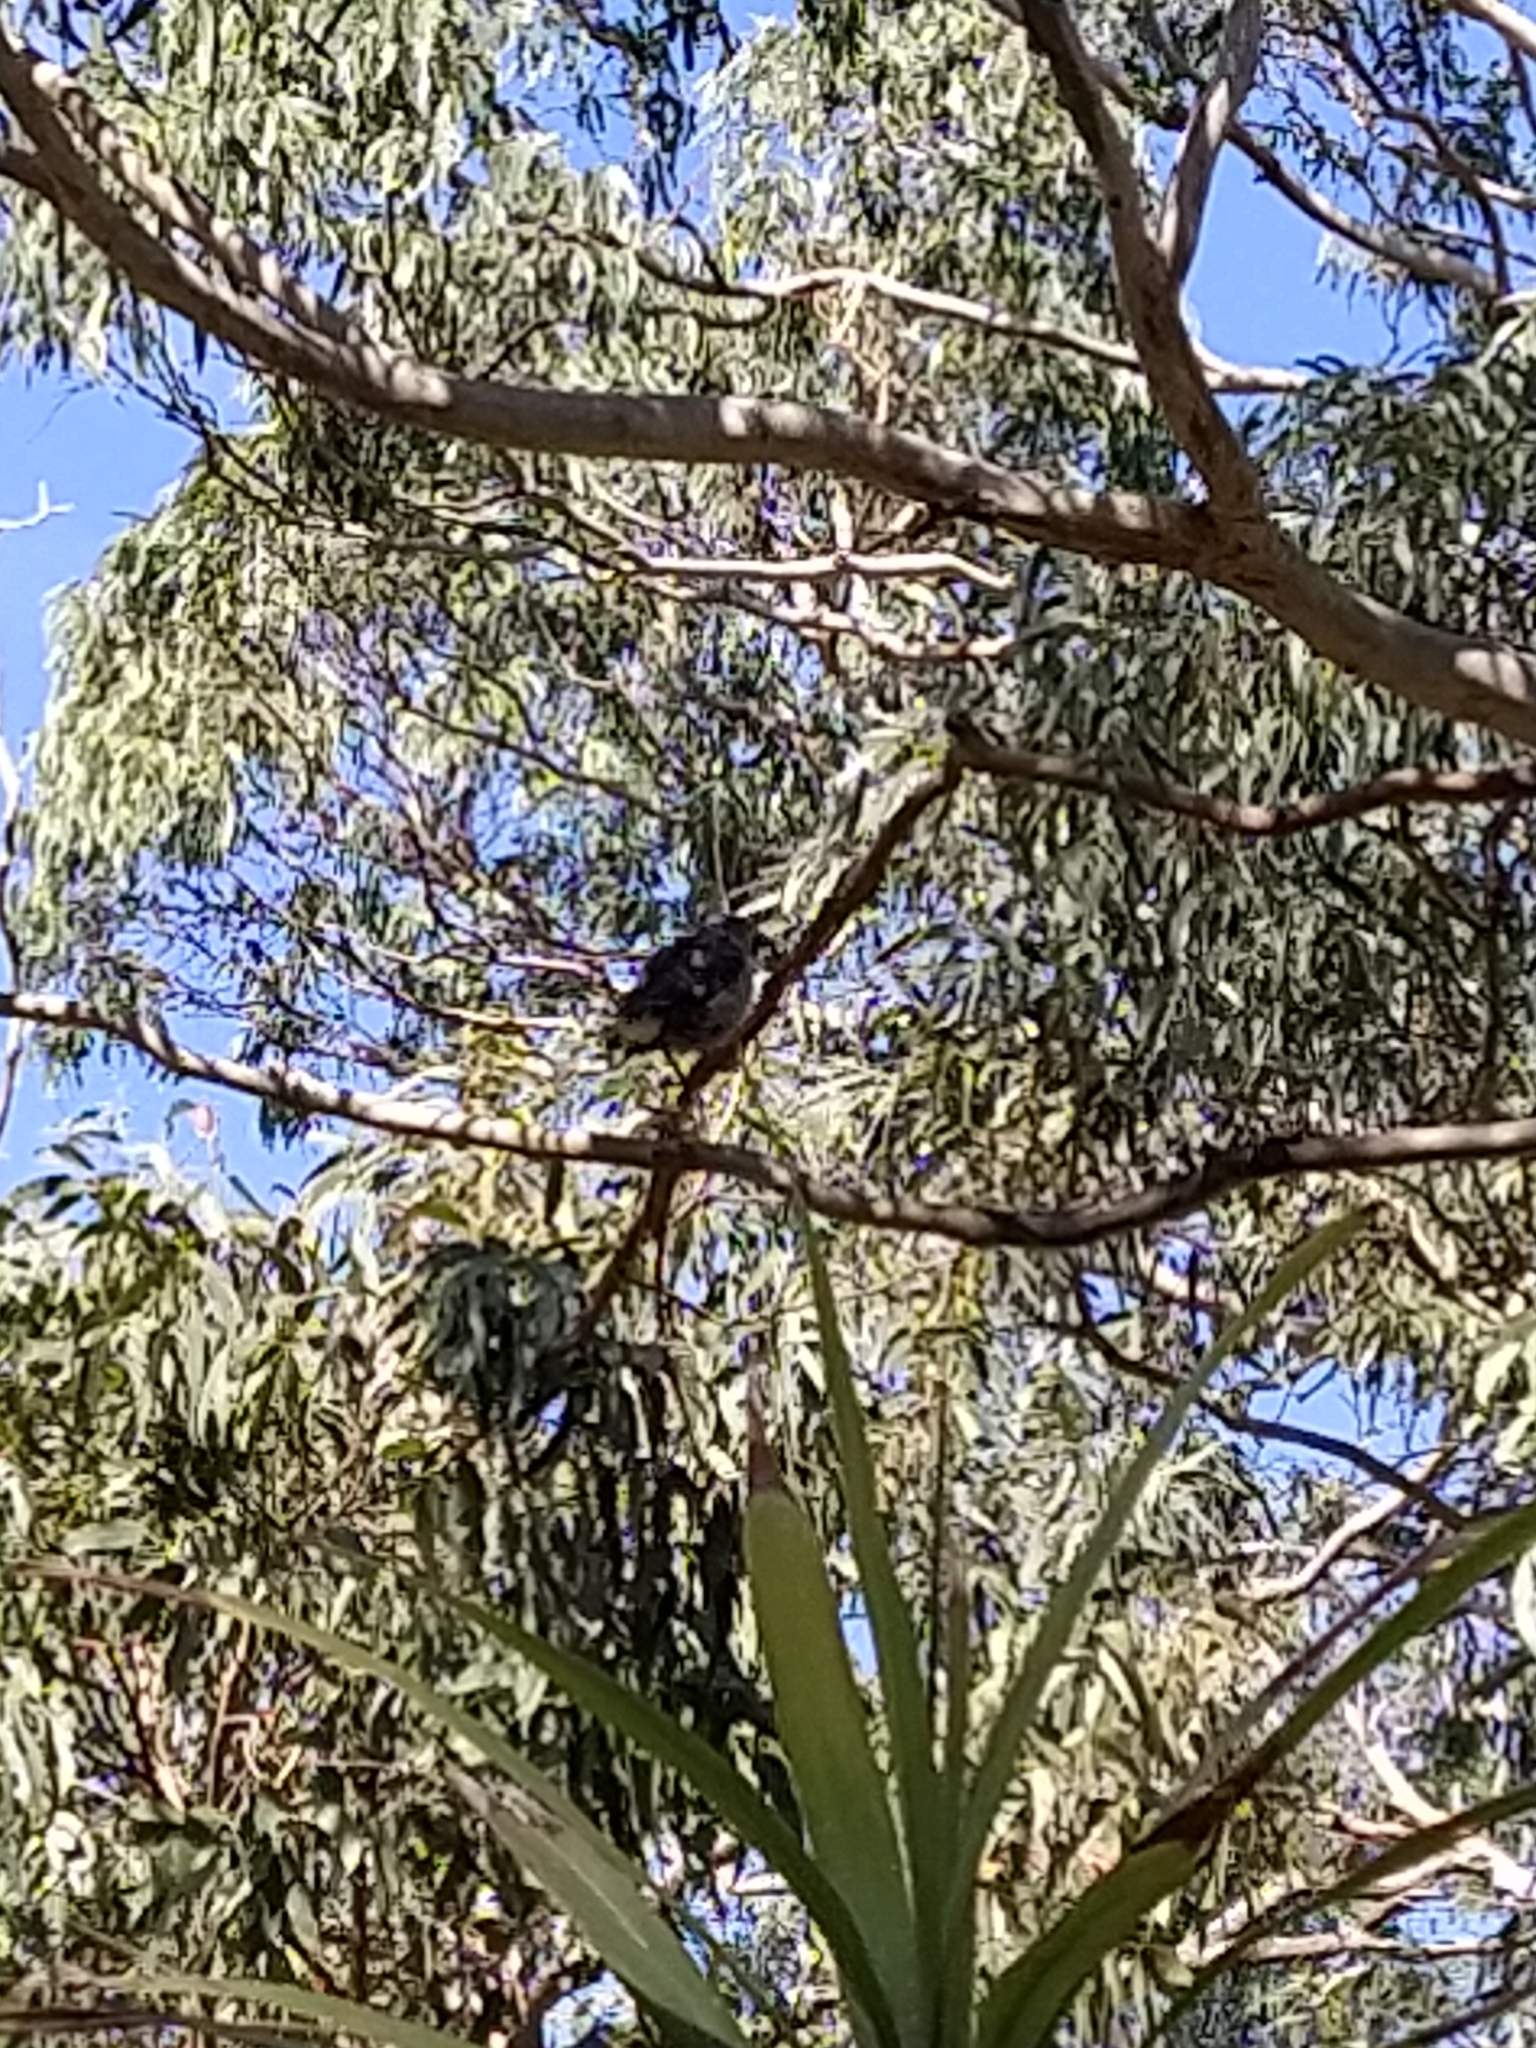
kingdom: Animalia
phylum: Chordata
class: Aves
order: Passeriformes
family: Cracticidae
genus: Strepera
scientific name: Strepera graculina
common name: Pied currawong
